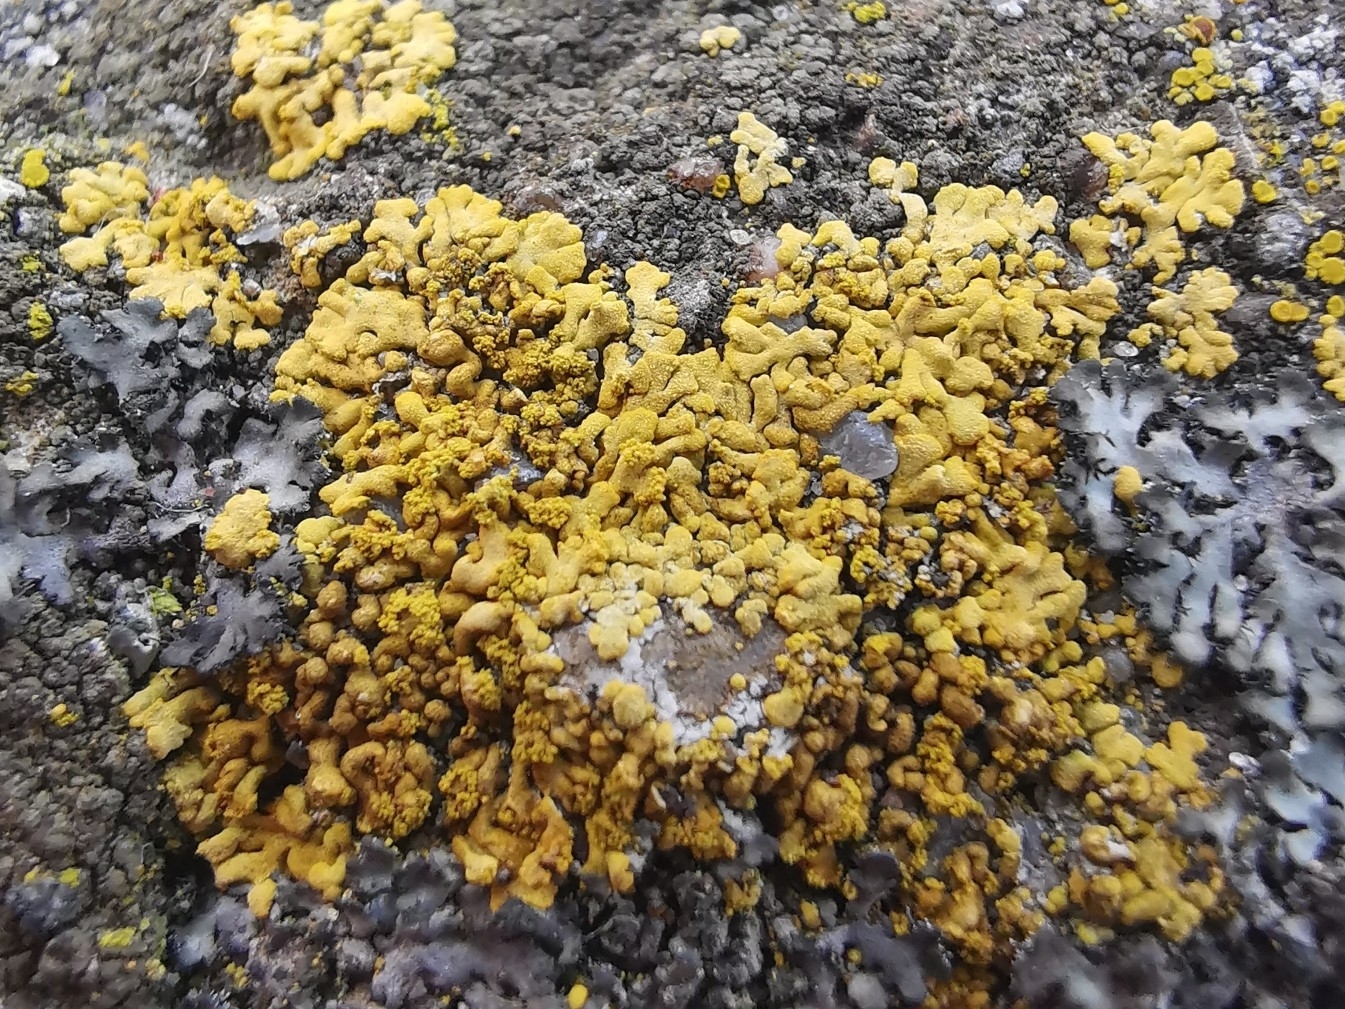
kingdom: Fungi
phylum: Ascomycota
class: Lecanoromycetes
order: Teloschistales
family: Teloschistaceae
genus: Calogaya
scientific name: Calogaya decipiens
